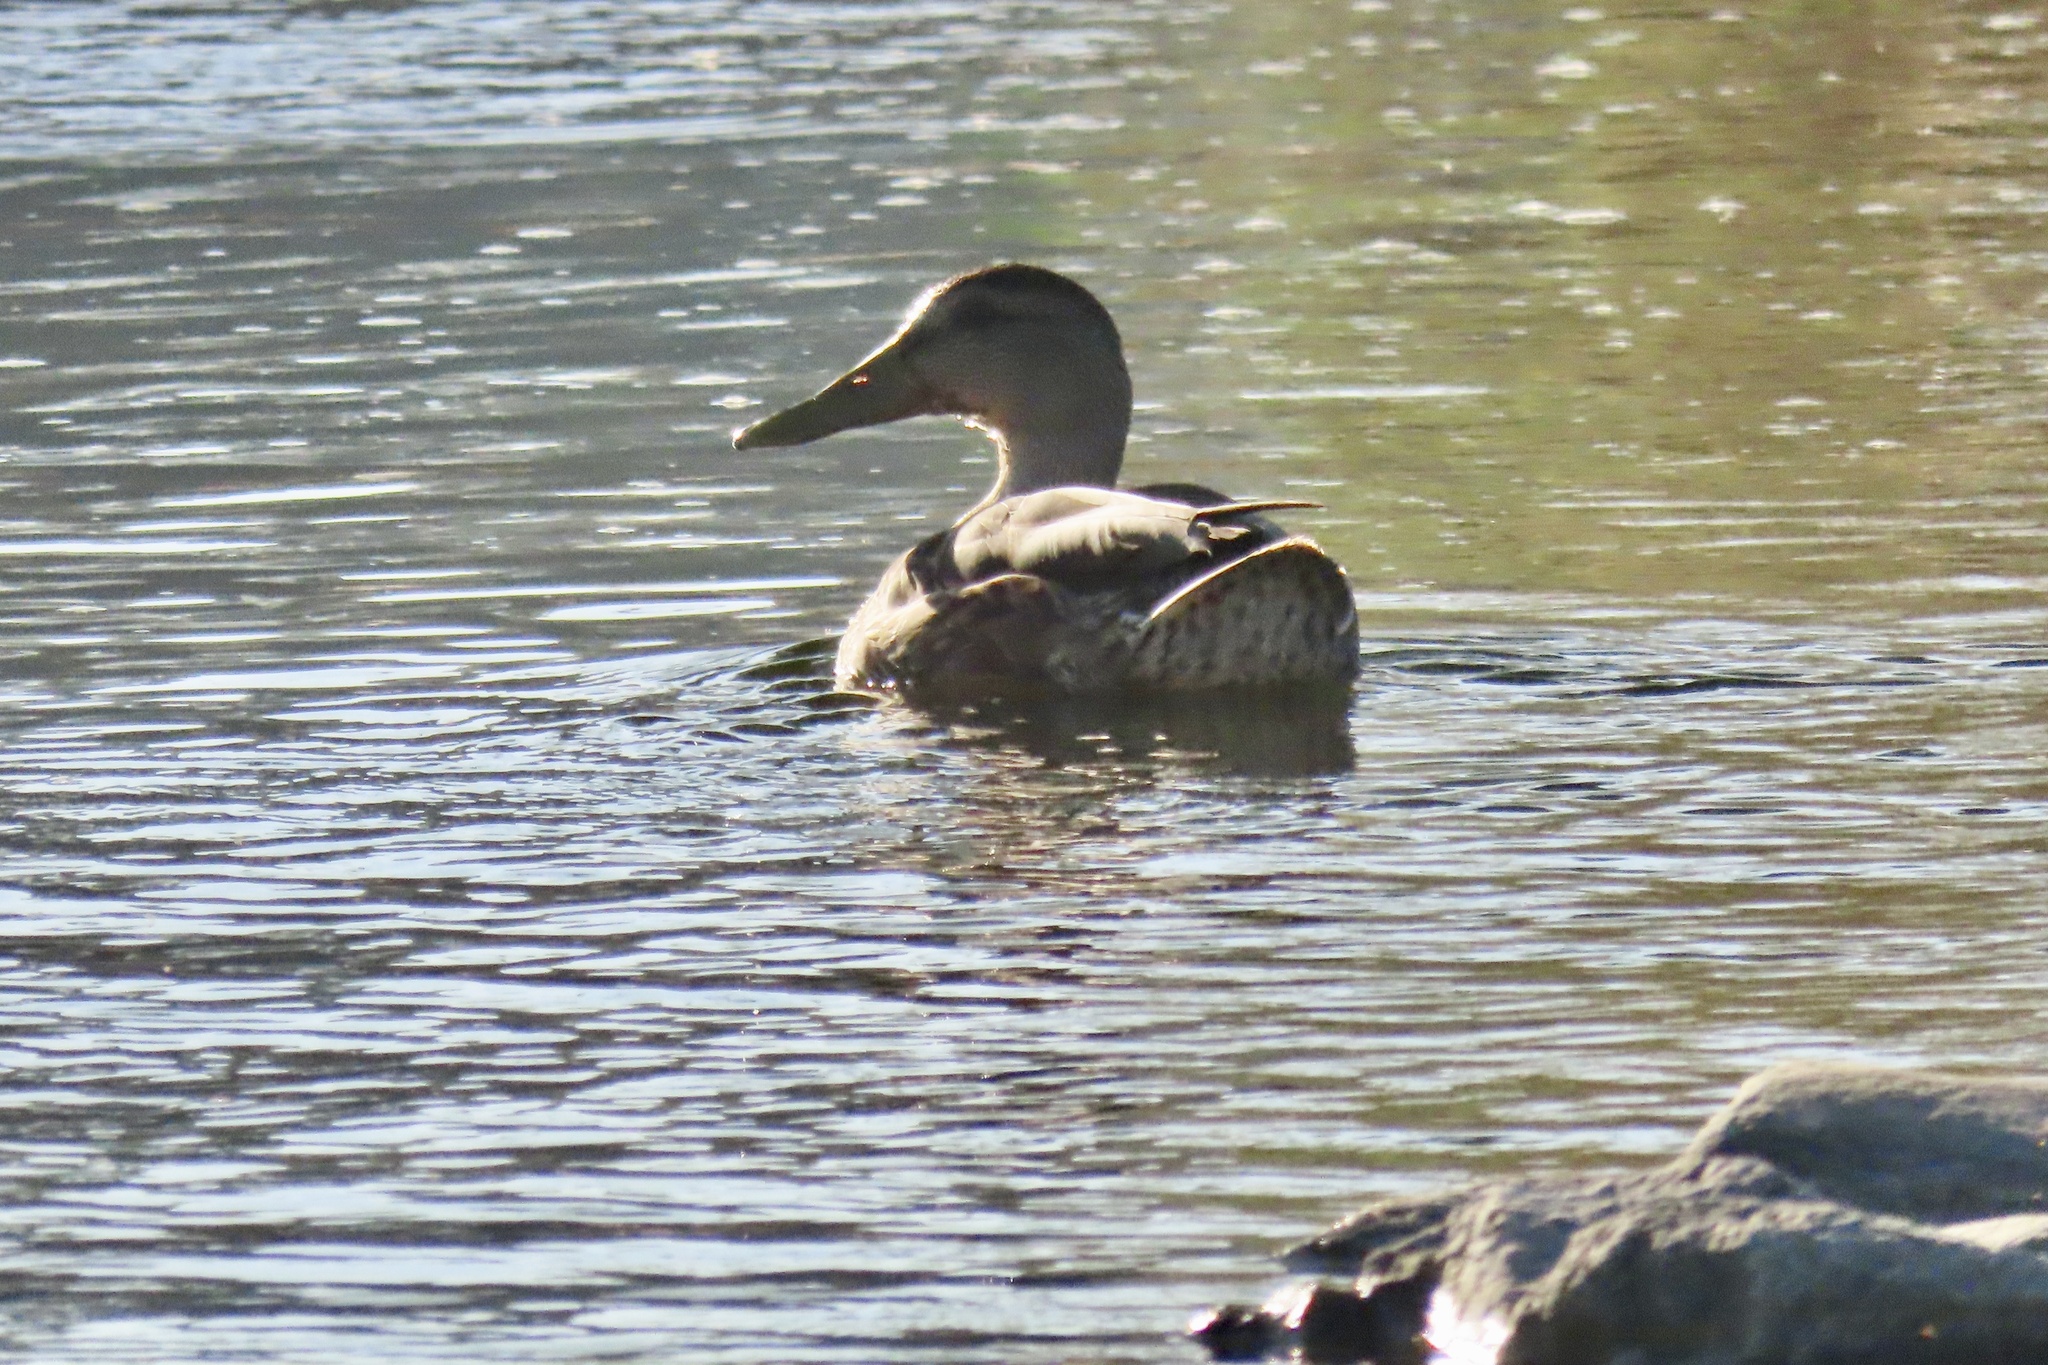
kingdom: Animalia
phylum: Chordata
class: Aves
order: Anseriformes
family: Anatidae
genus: Anas
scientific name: Anas platyrhynchos
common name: Mallard
